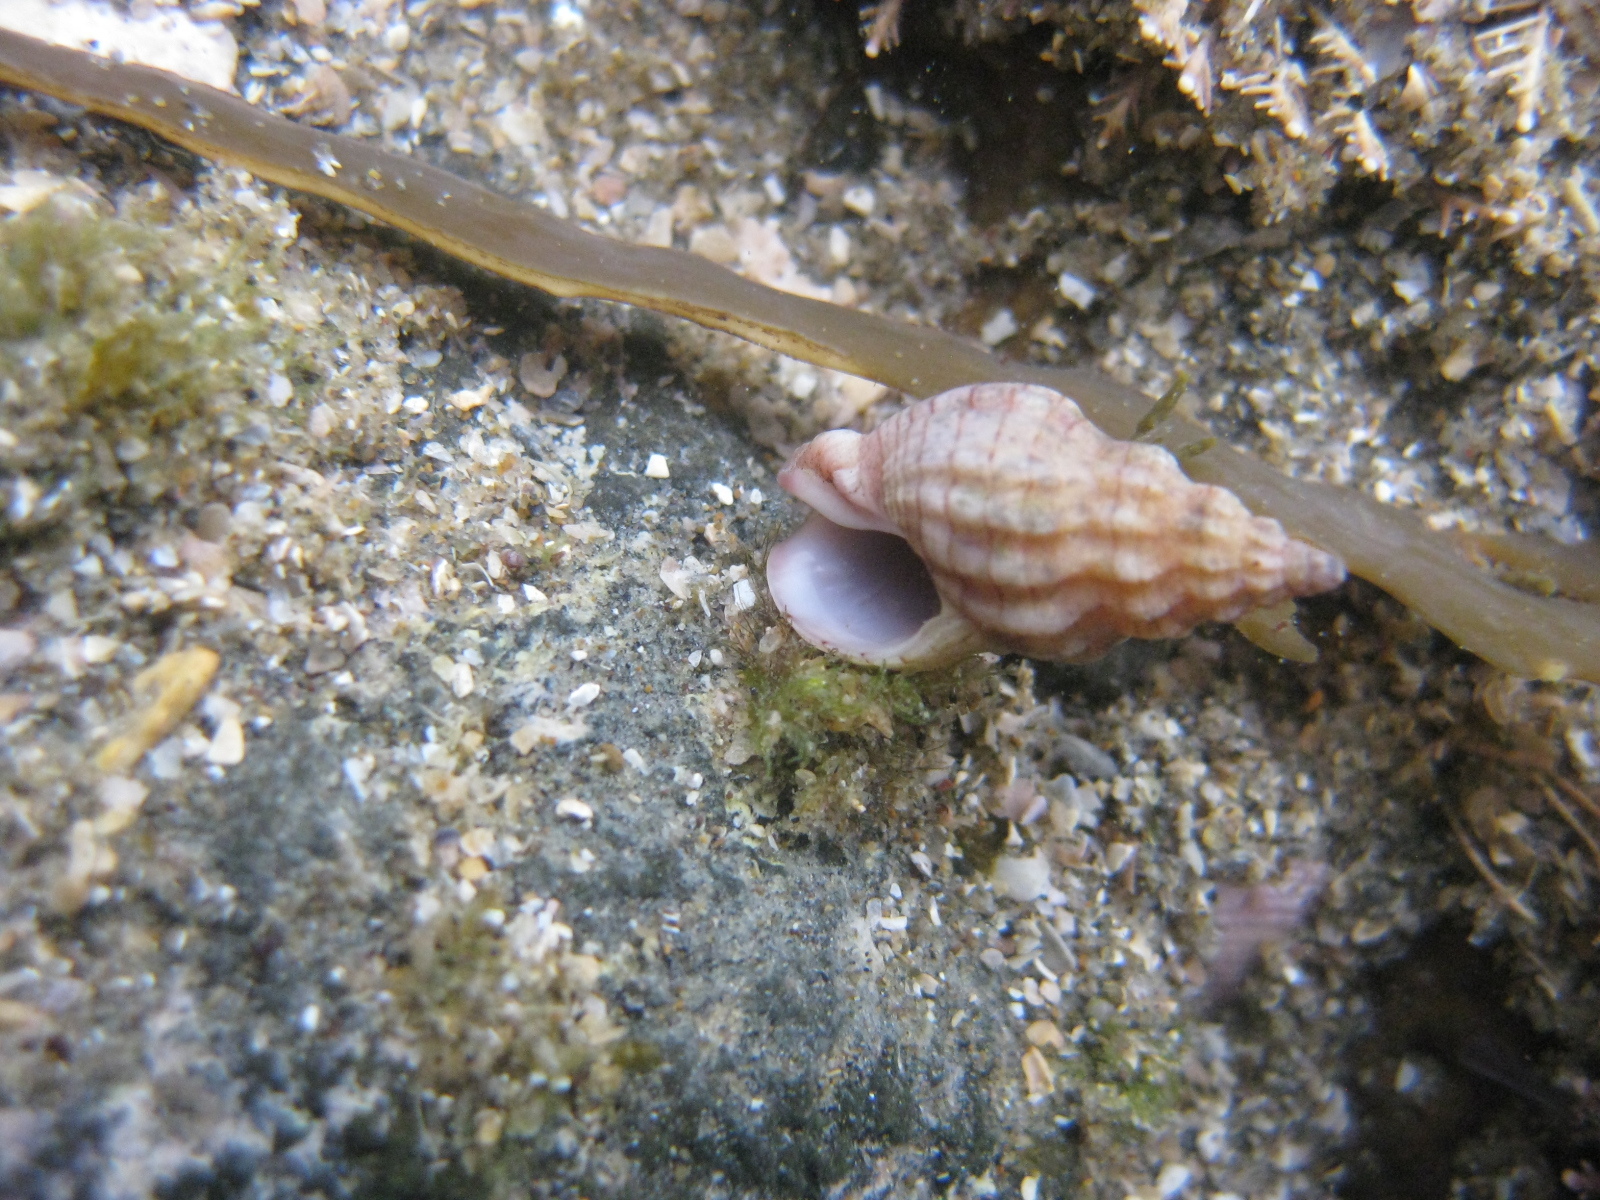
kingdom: Animalia
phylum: Mollusca
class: Gastropoda
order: Neogastropoda
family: Cominellidae
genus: Cominella
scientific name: Cominella quoyana
